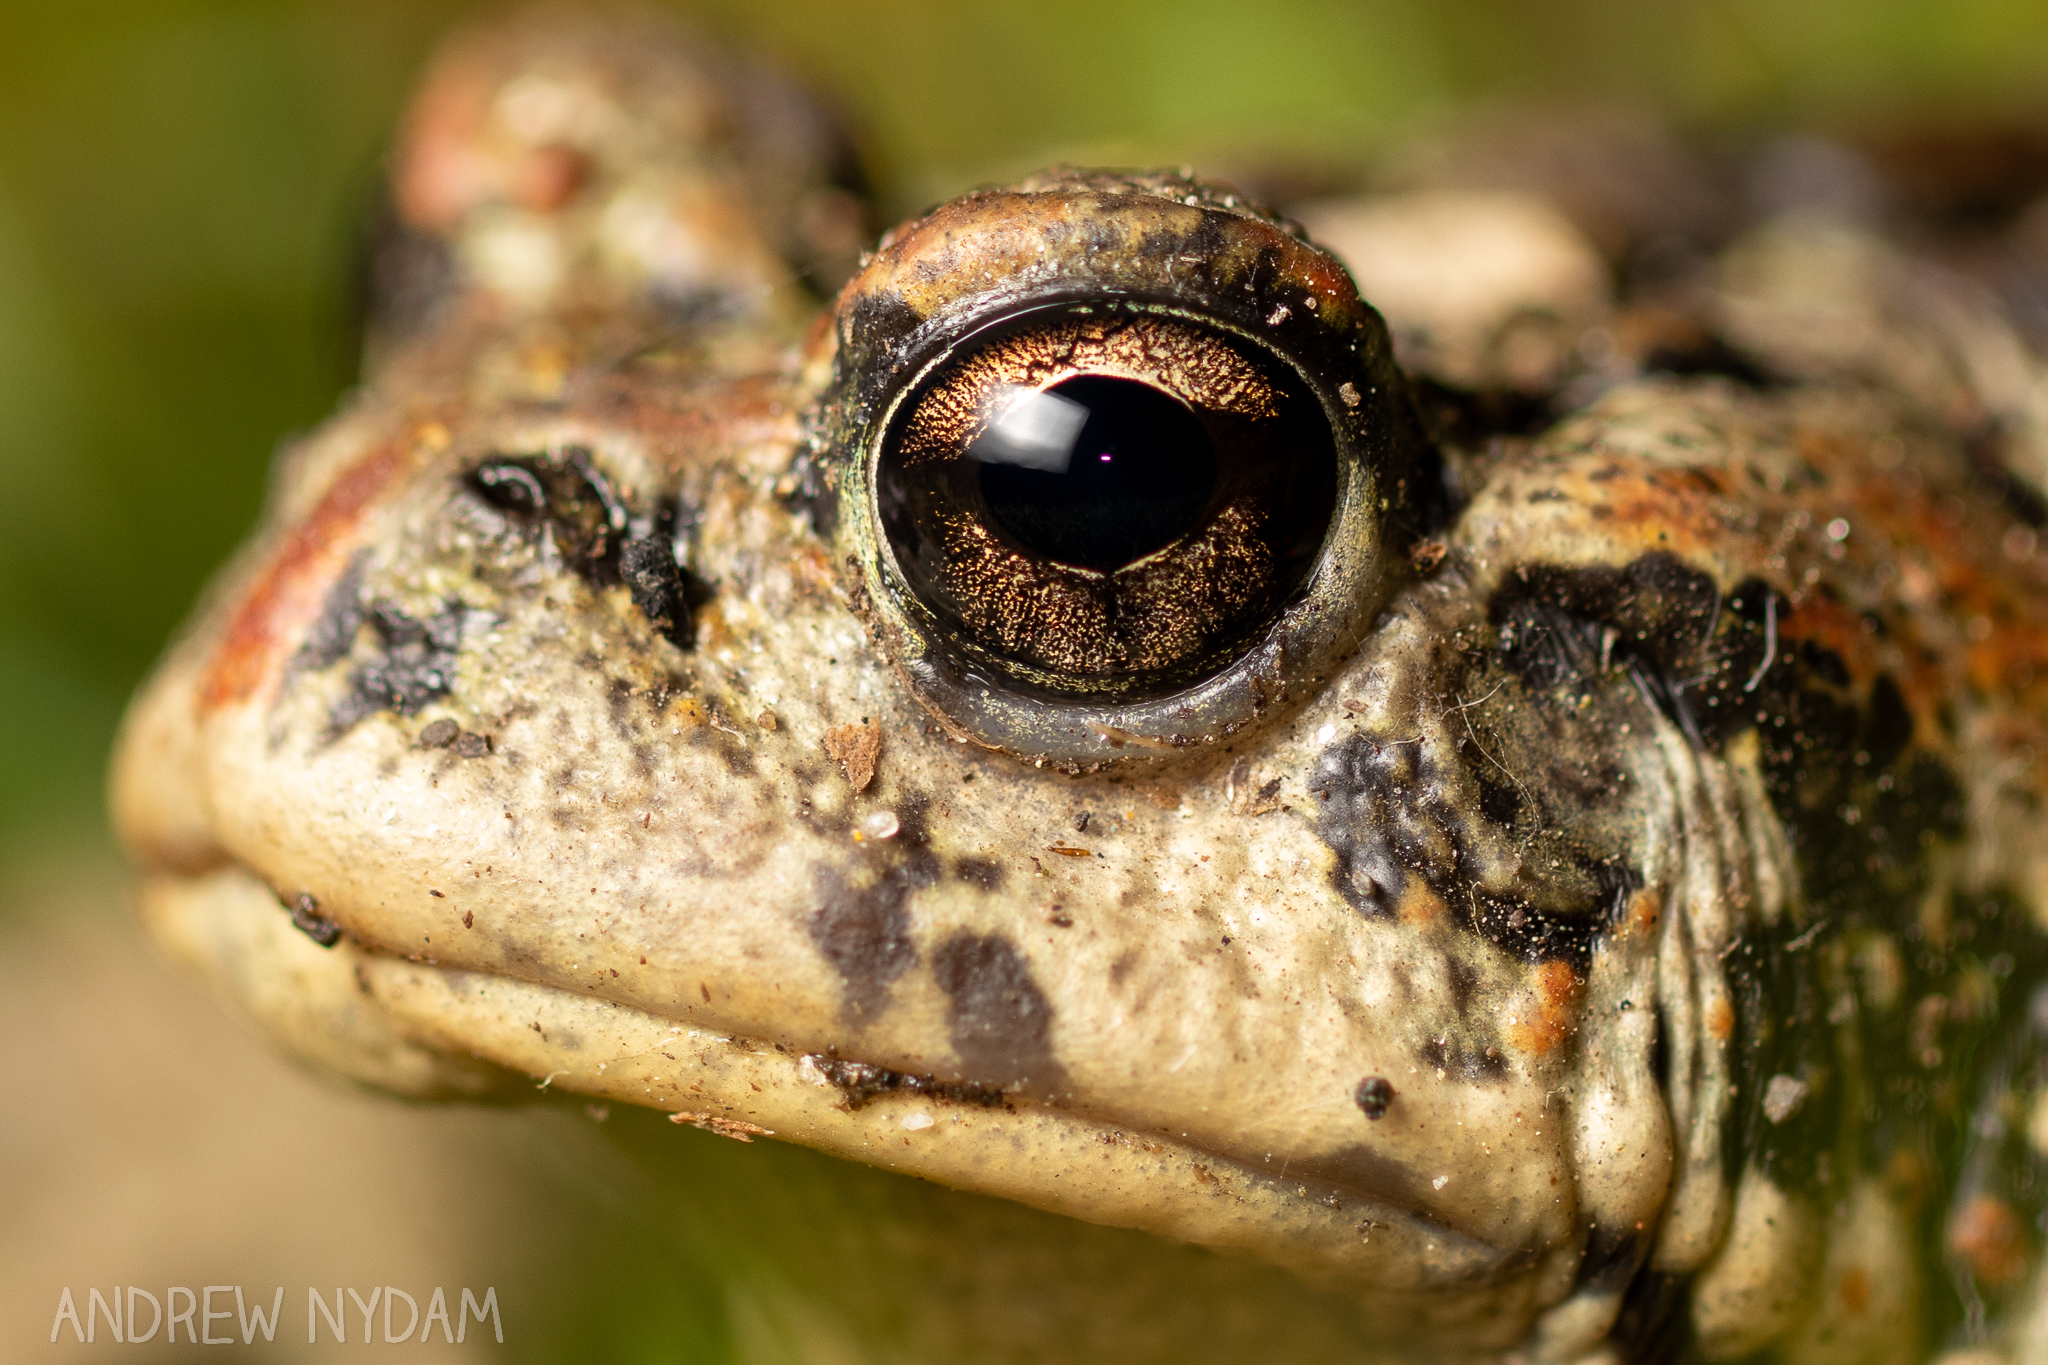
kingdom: Animalia
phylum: Chordata
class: Amphibia
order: Anura
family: Bufonidae
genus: Anaxyrus
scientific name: Anaxyrus boreas
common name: Western toad
